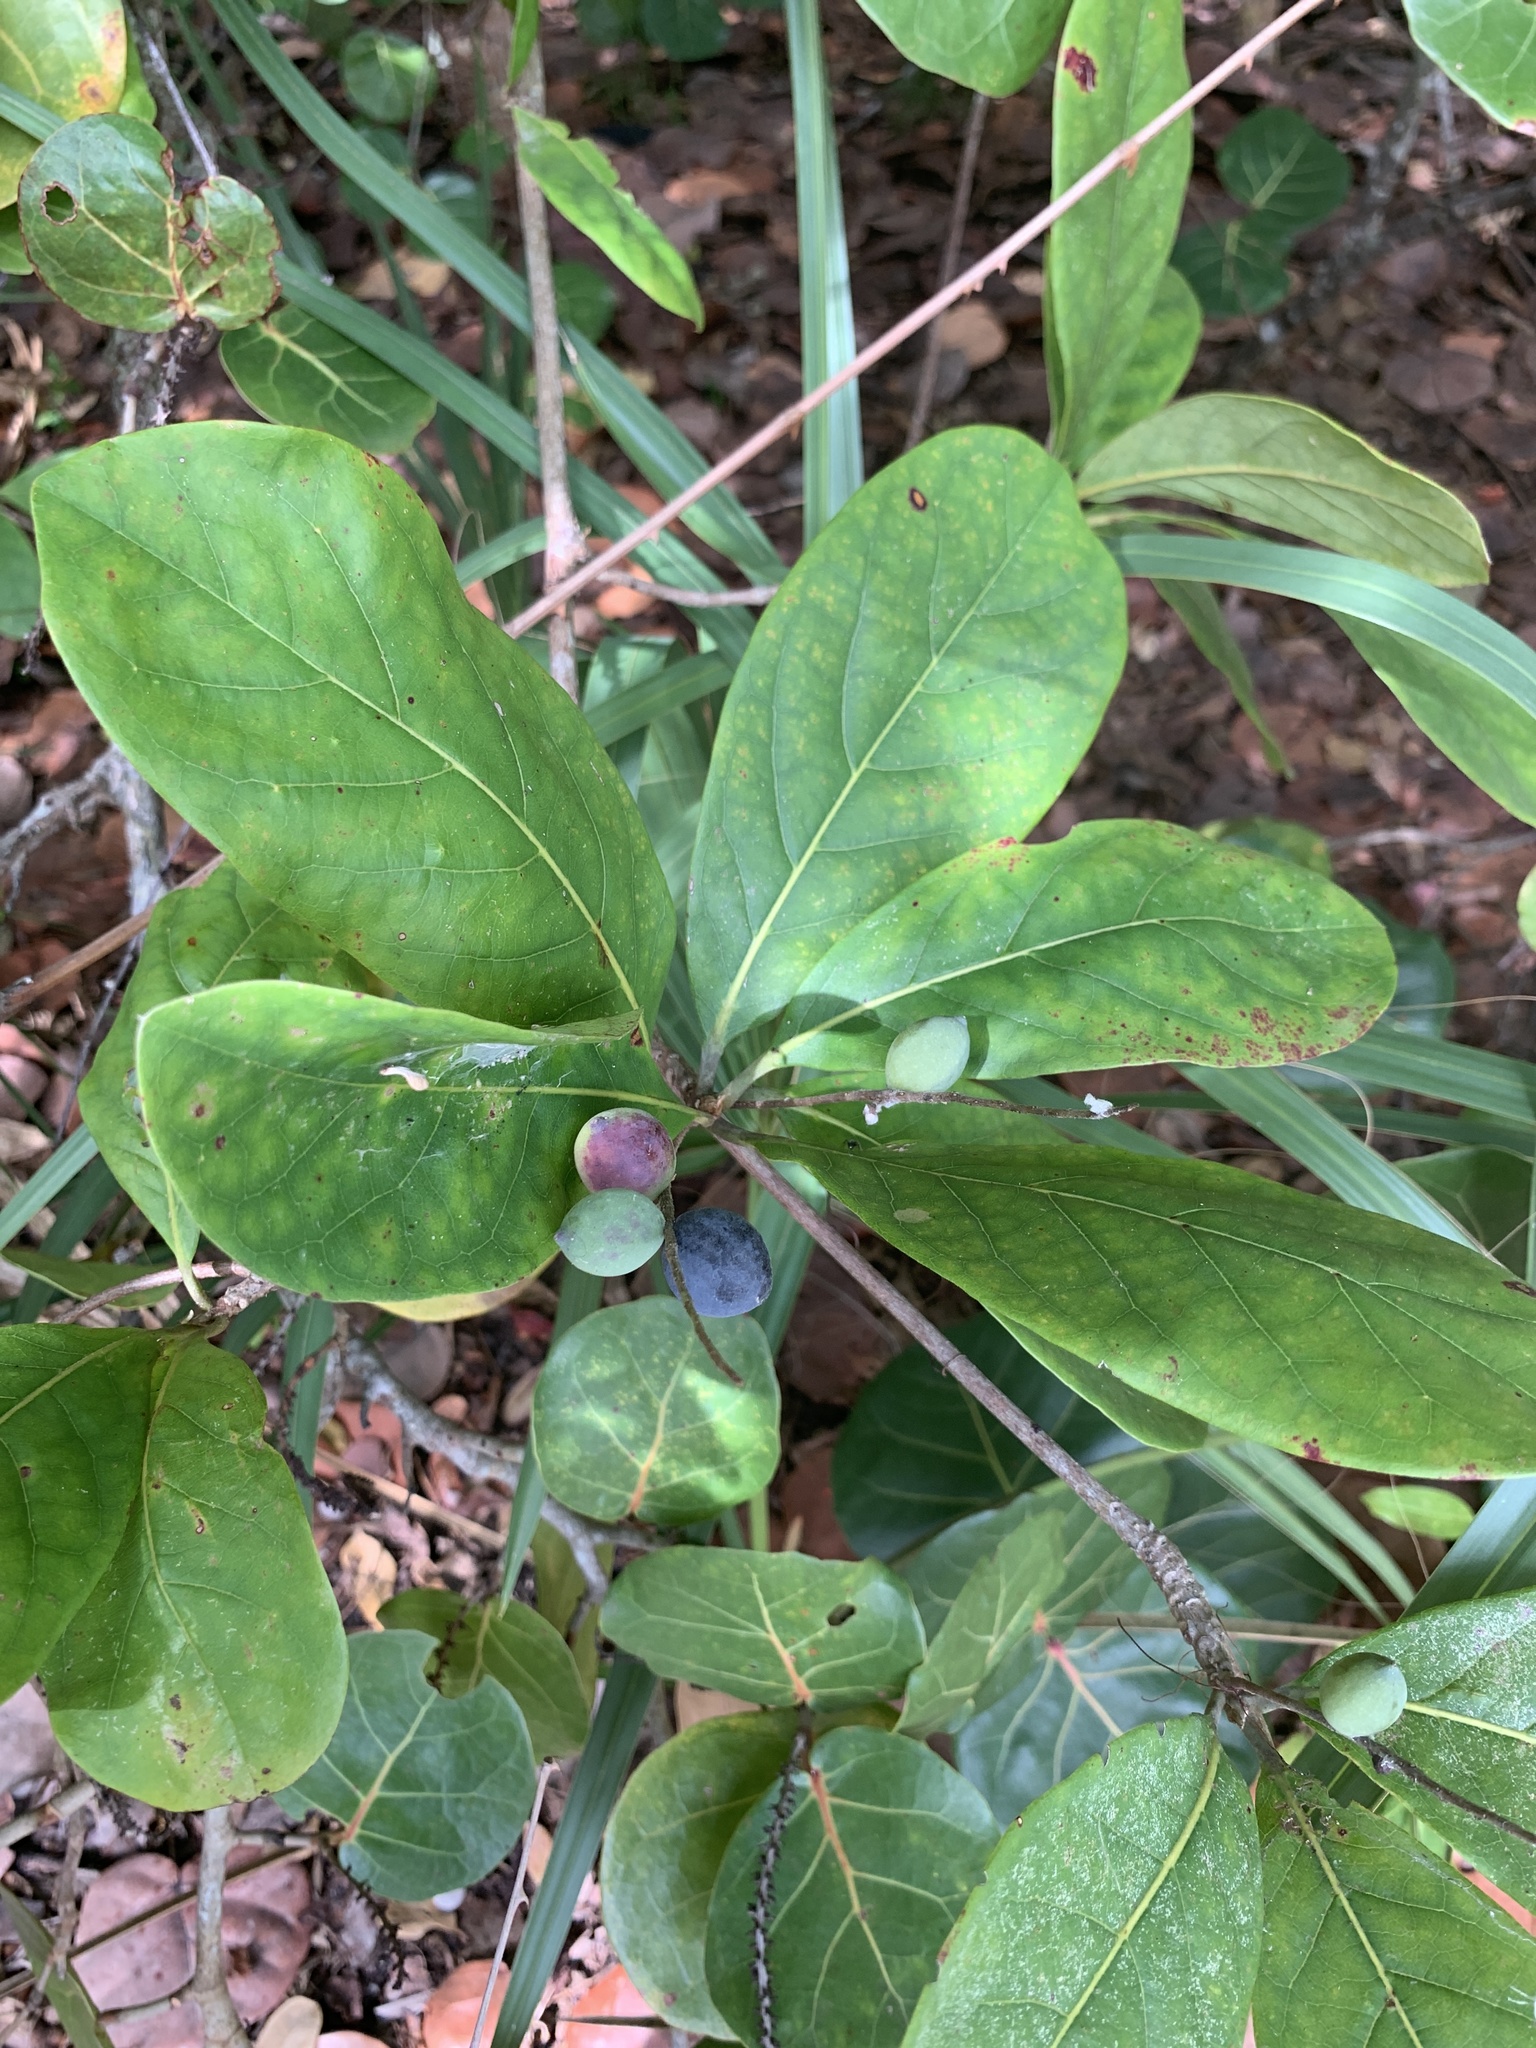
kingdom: Plantae
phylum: Tracheophyta
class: Magnoliopsida
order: Myrtales
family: Combretaceae
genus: Terminalia
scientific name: Terminalia muelleri
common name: Australian almond
